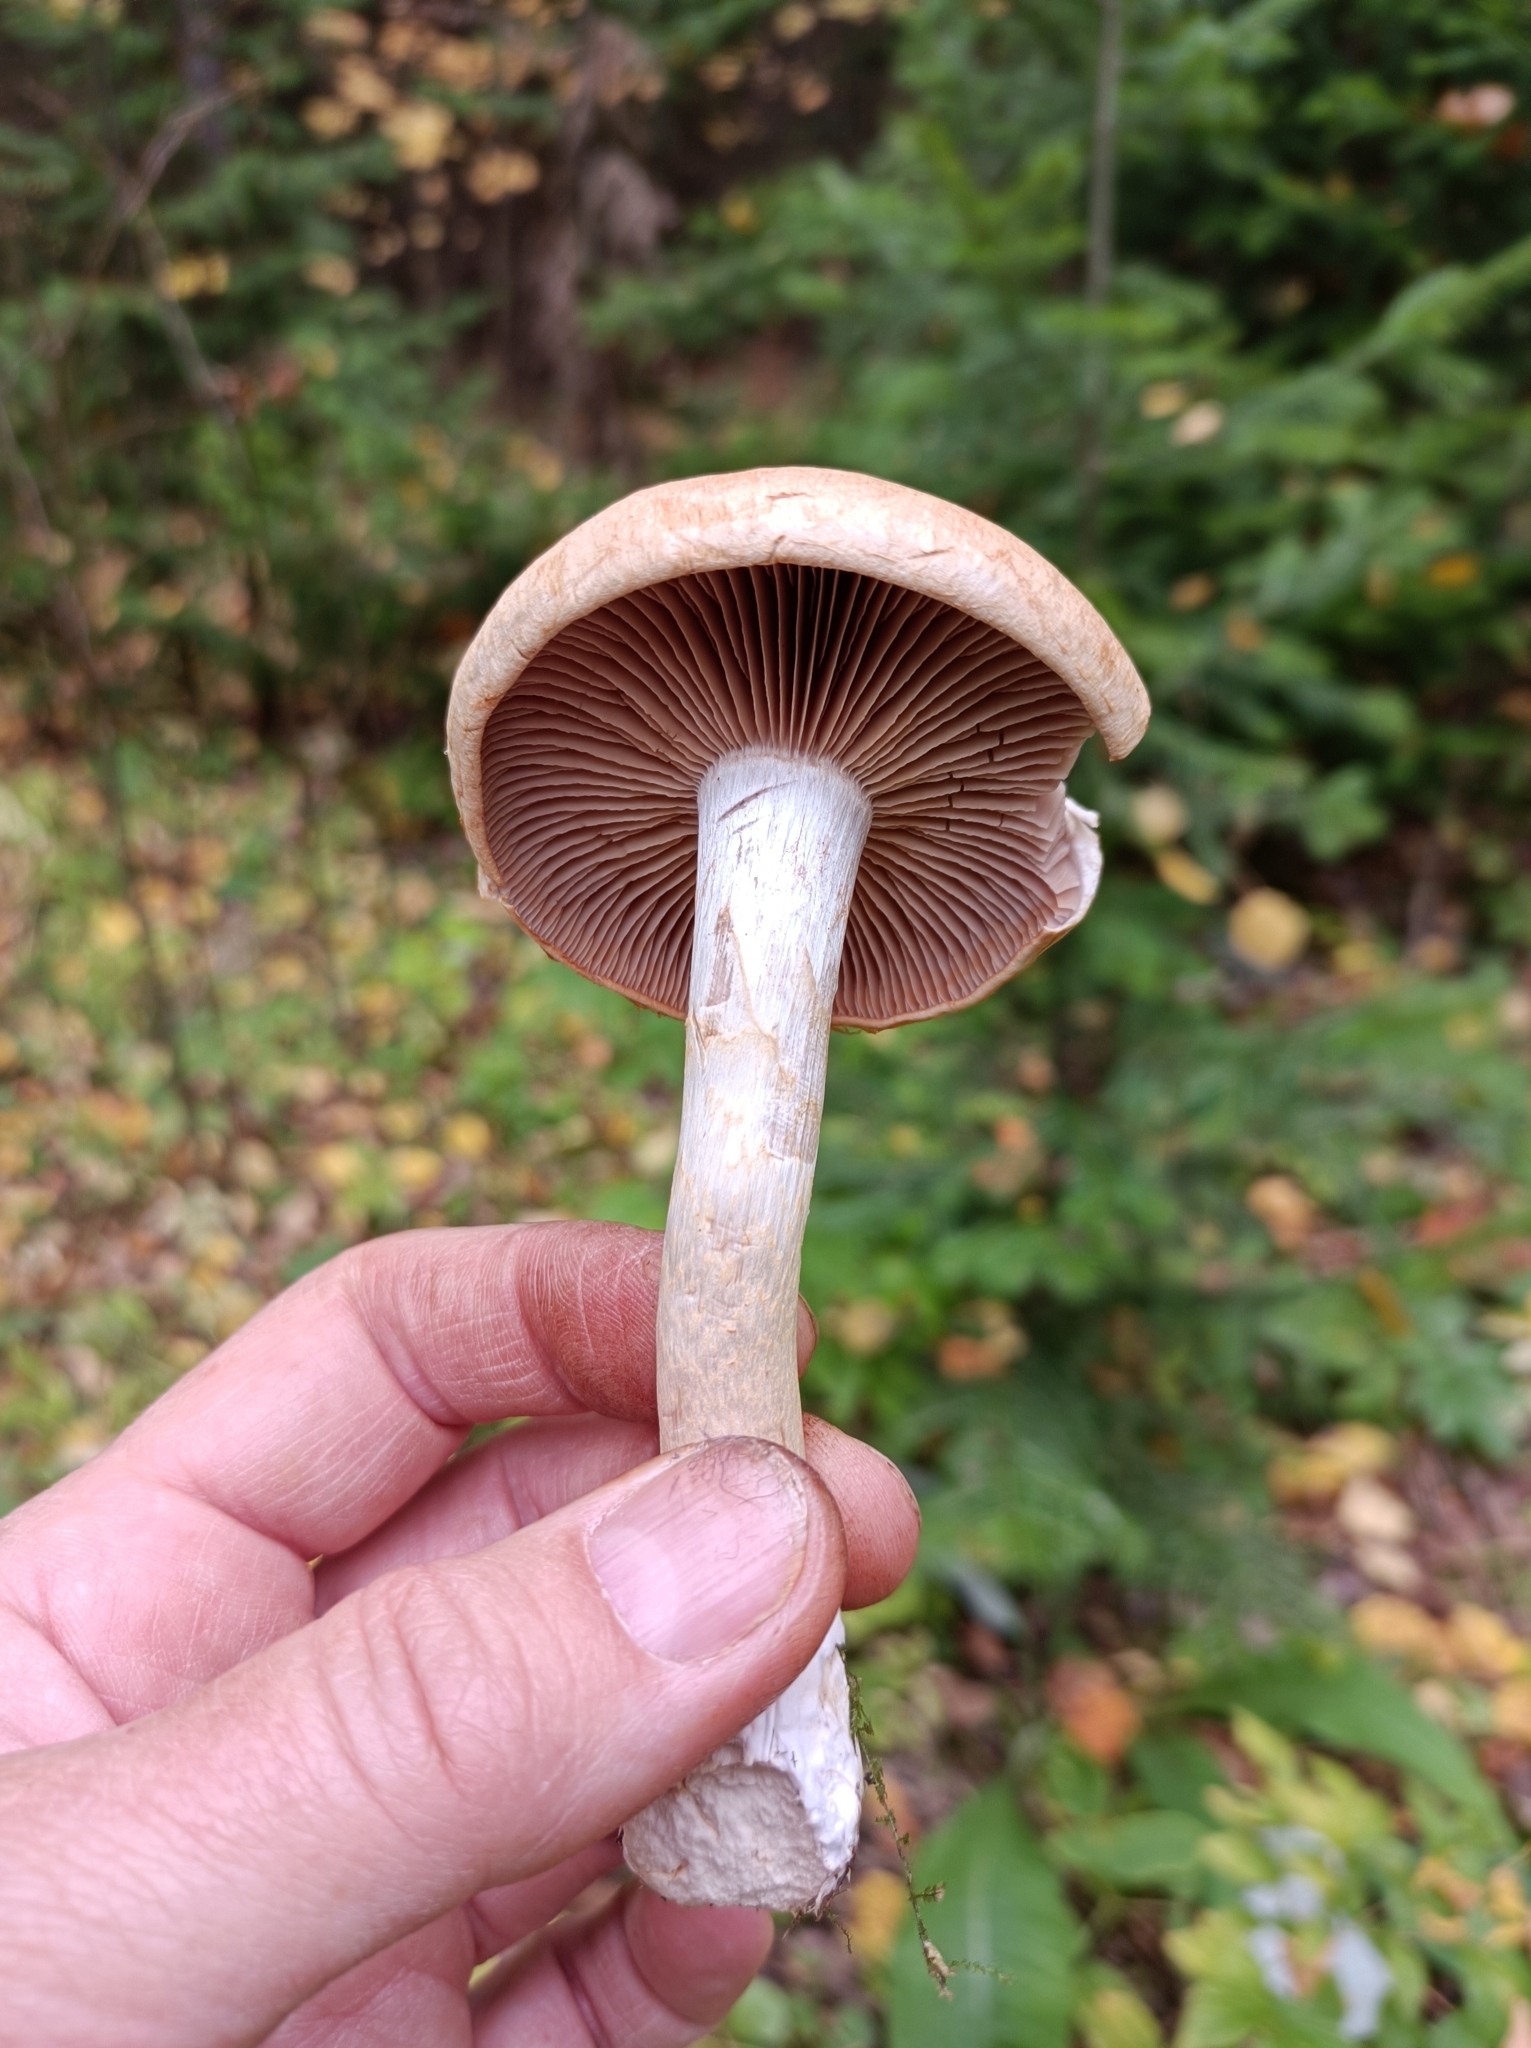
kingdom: Fungi
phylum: Basidiomycota
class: Agaricomycetes
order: Agaricales
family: Cortinariaceae
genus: Cortinarius
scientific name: Cortinarius lebretonii
